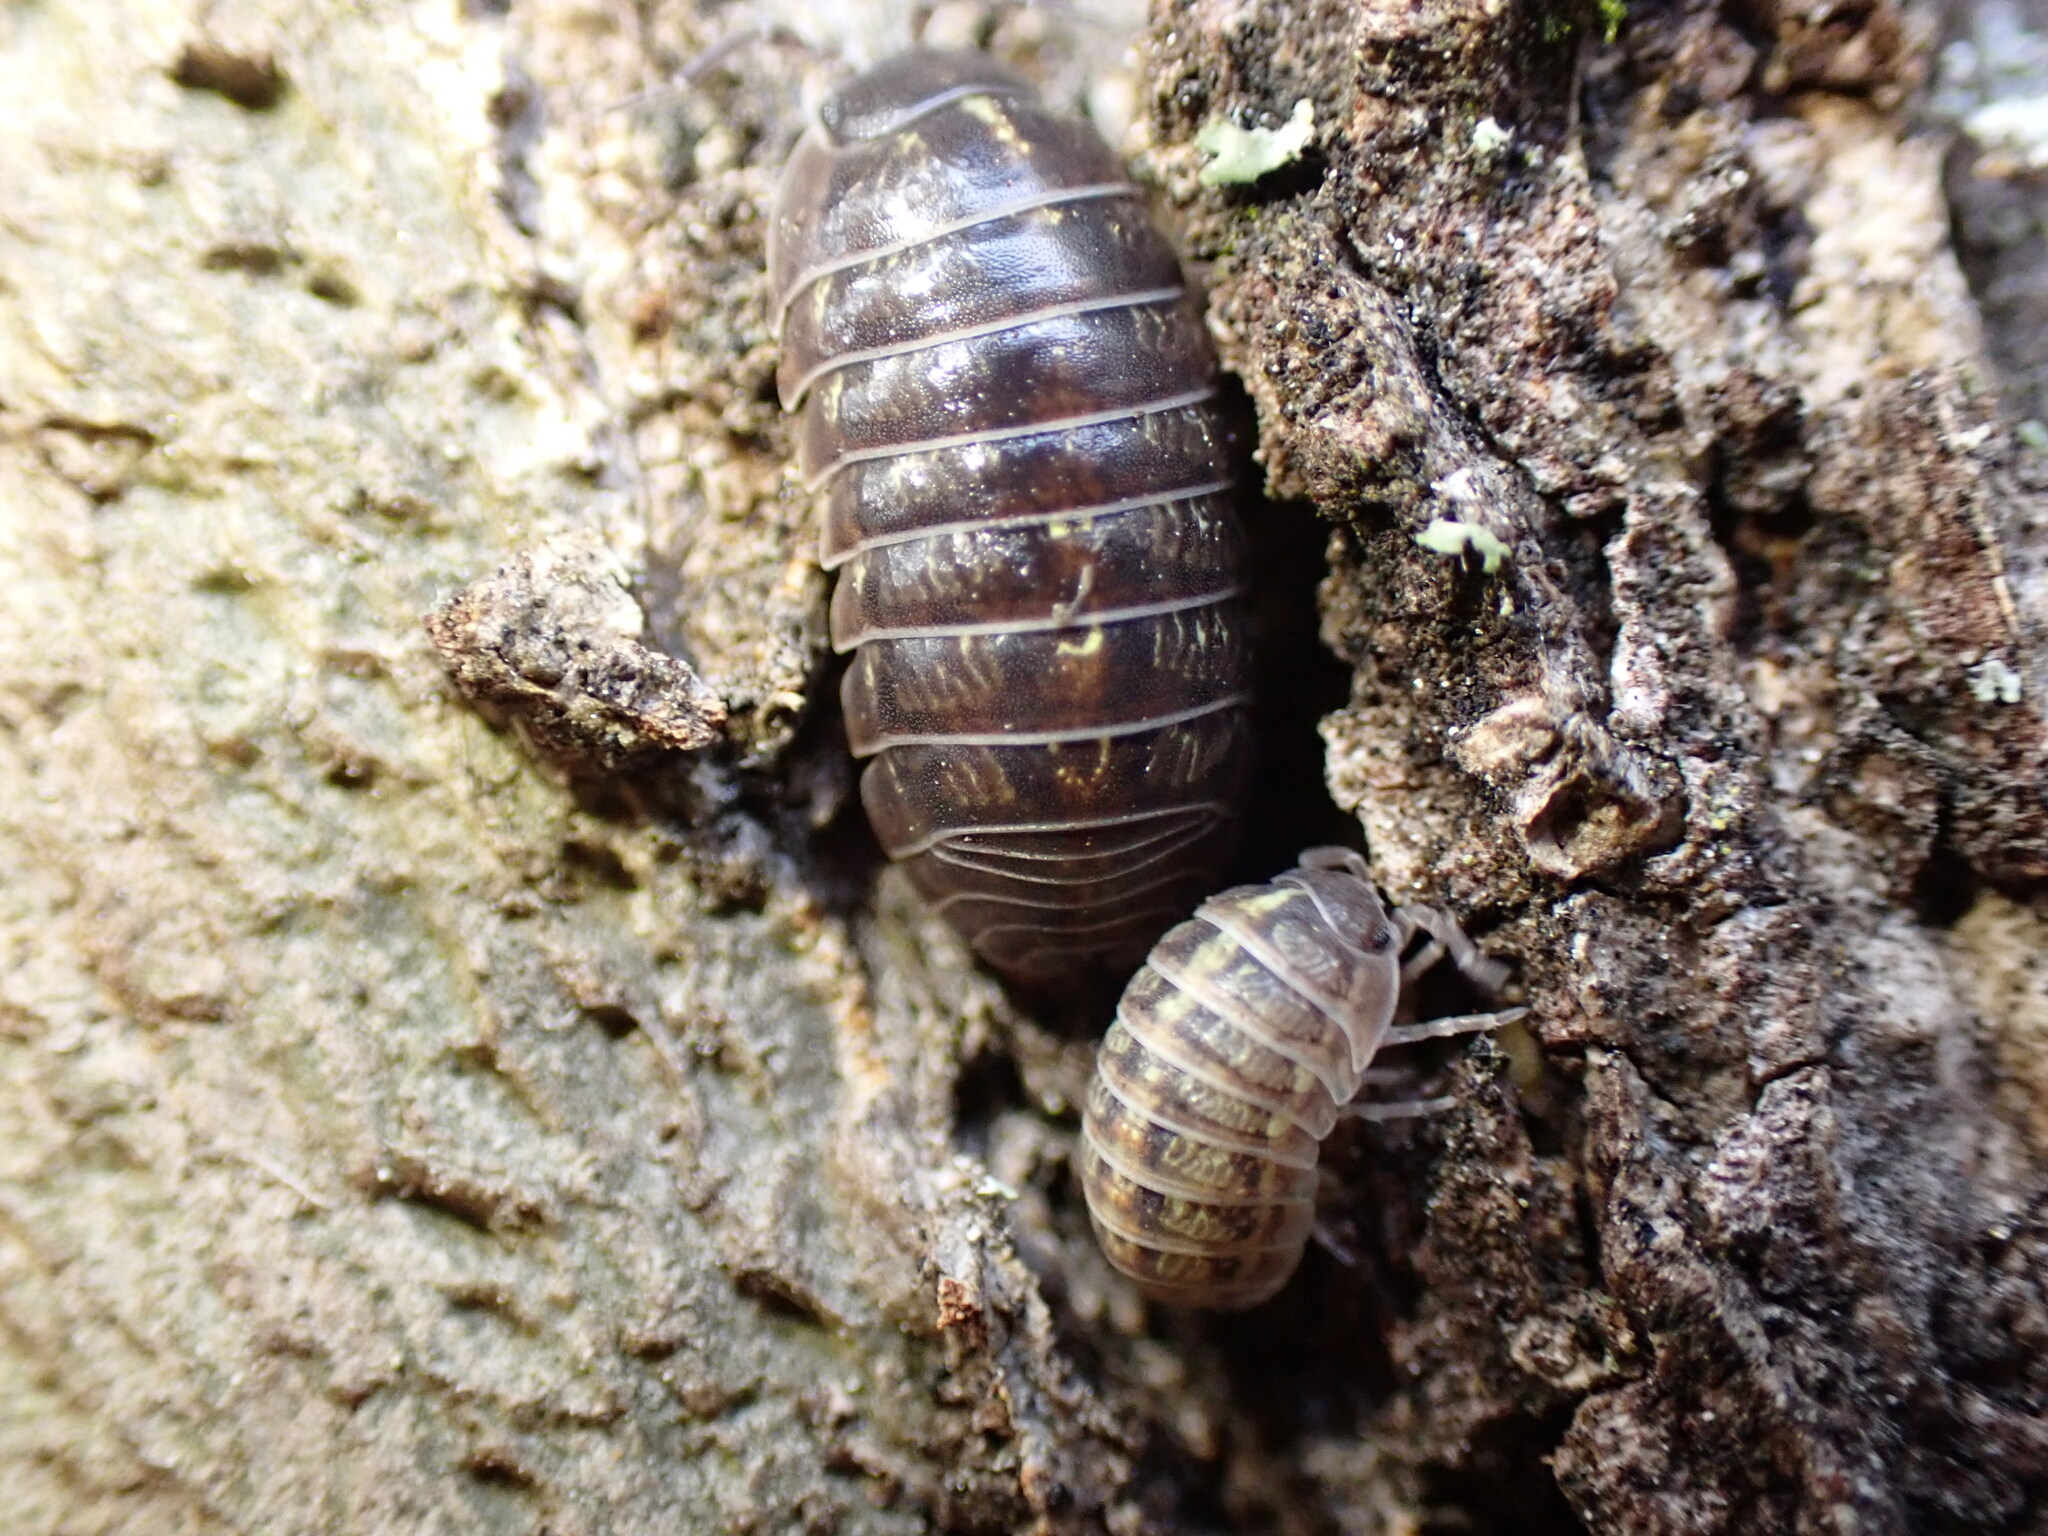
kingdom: Animalia
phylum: Arthropoda
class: Malacostraca
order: Isopoda
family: Armadillidiidae
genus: Armadillidium
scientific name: Armadillidium vulgare
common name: Common pill woodlouse
